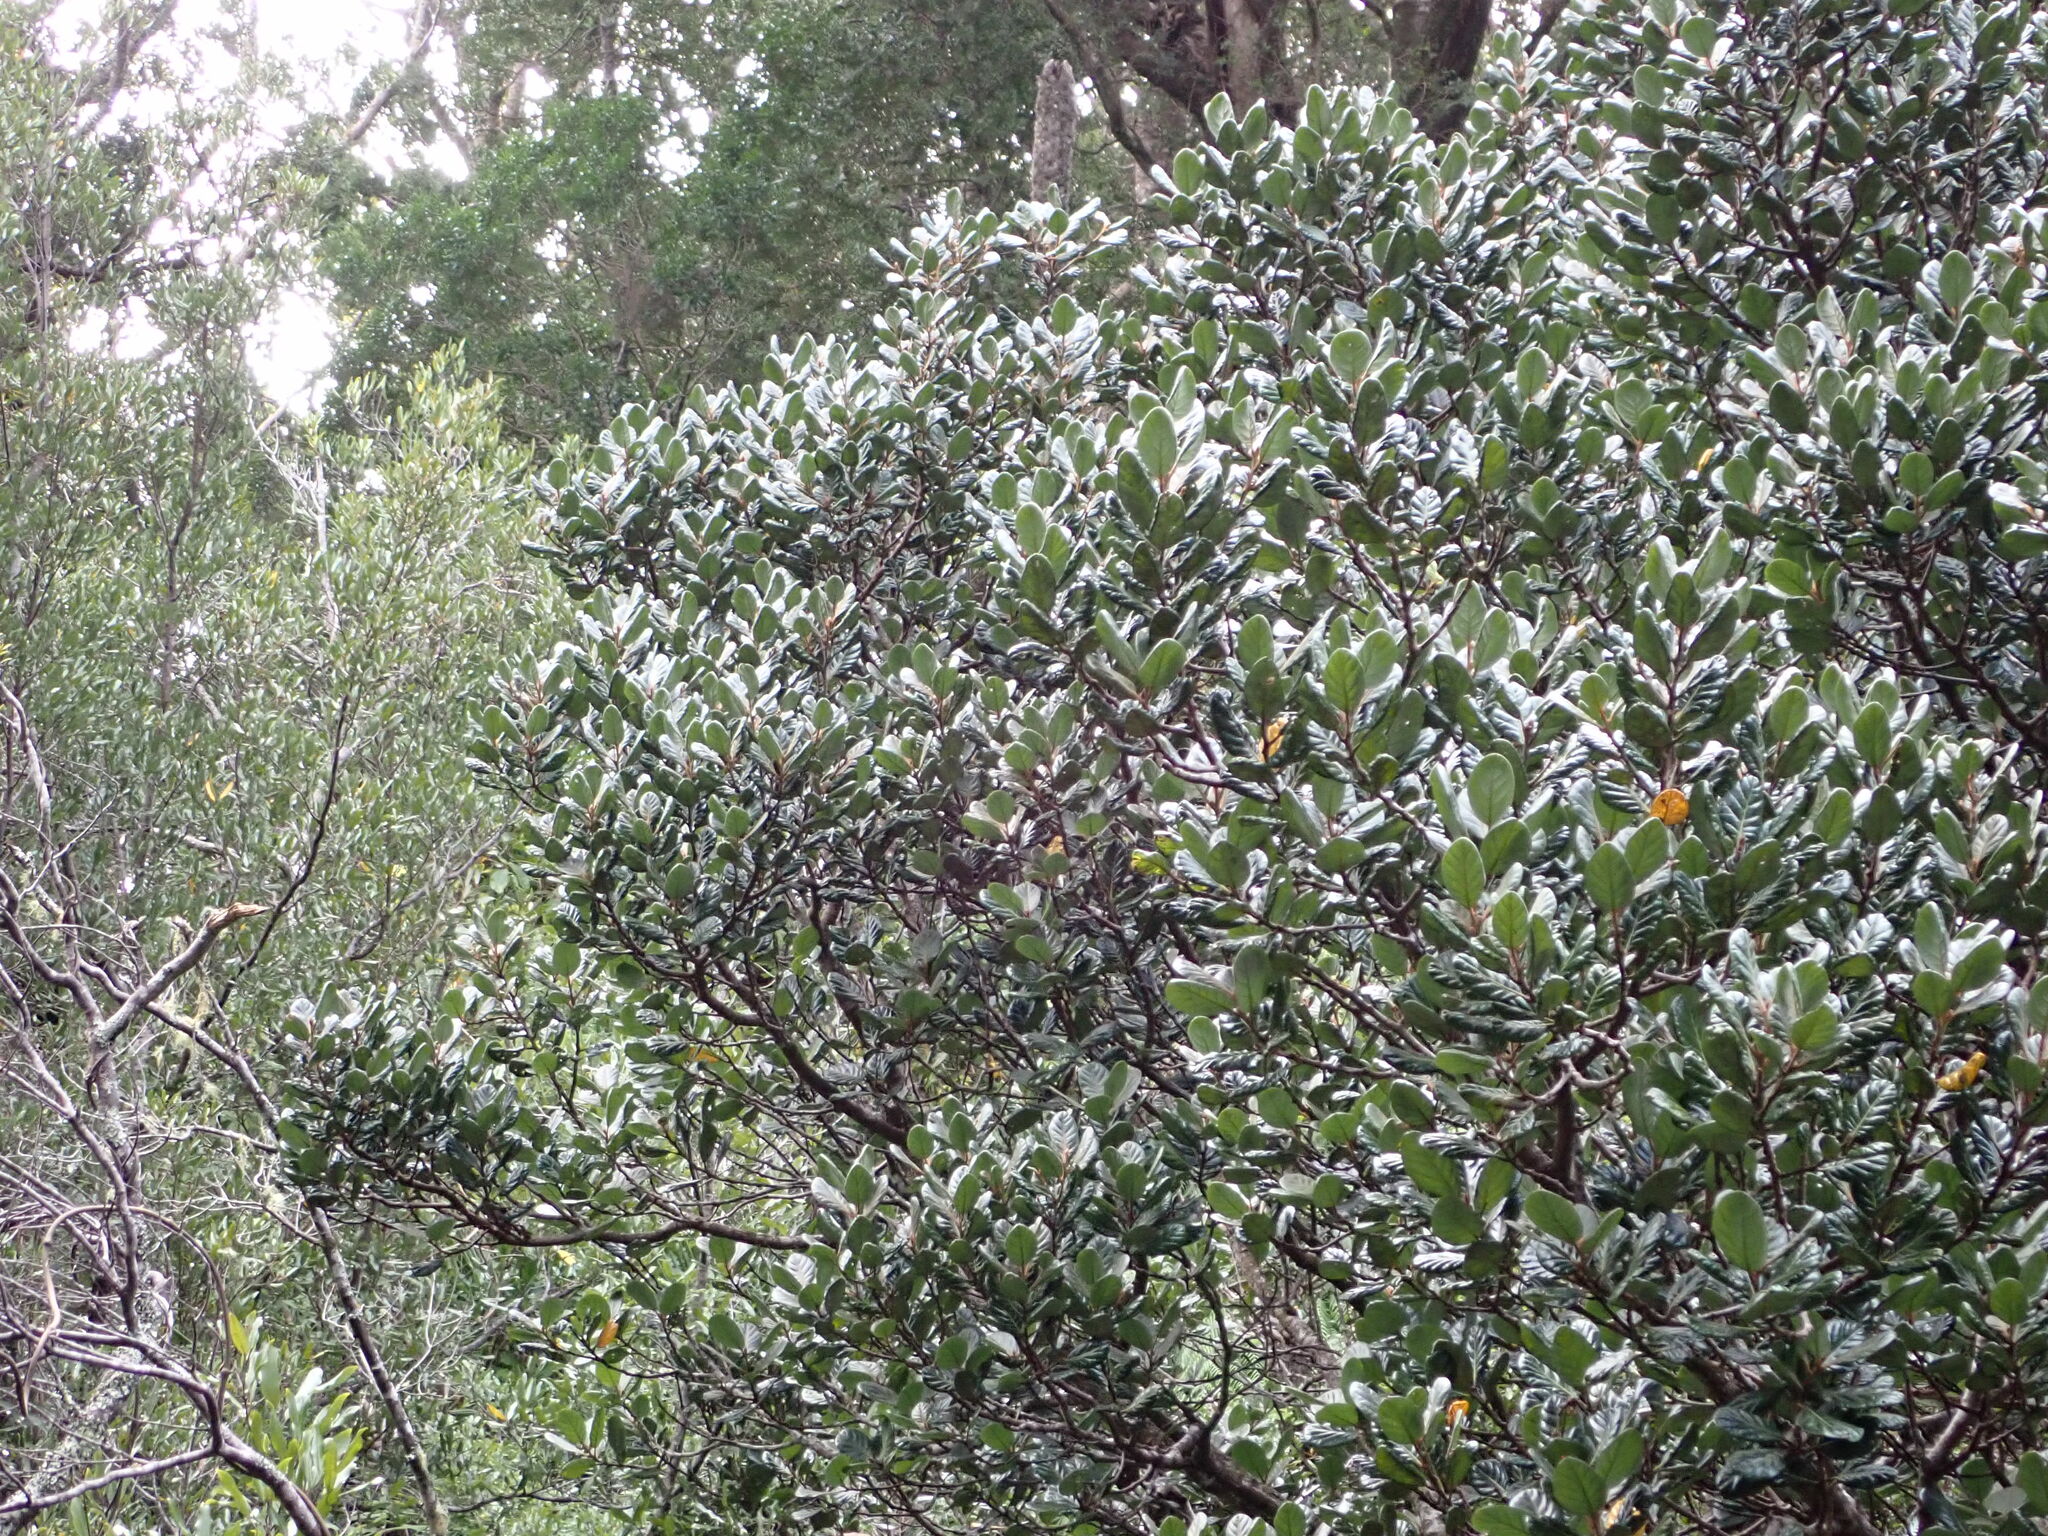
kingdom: Plantae
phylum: Tracheophyta
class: Magnoliopsida
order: Laurales
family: Lauraceae
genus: Beilschmiedia
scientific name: Beilschmiedia tarairi
